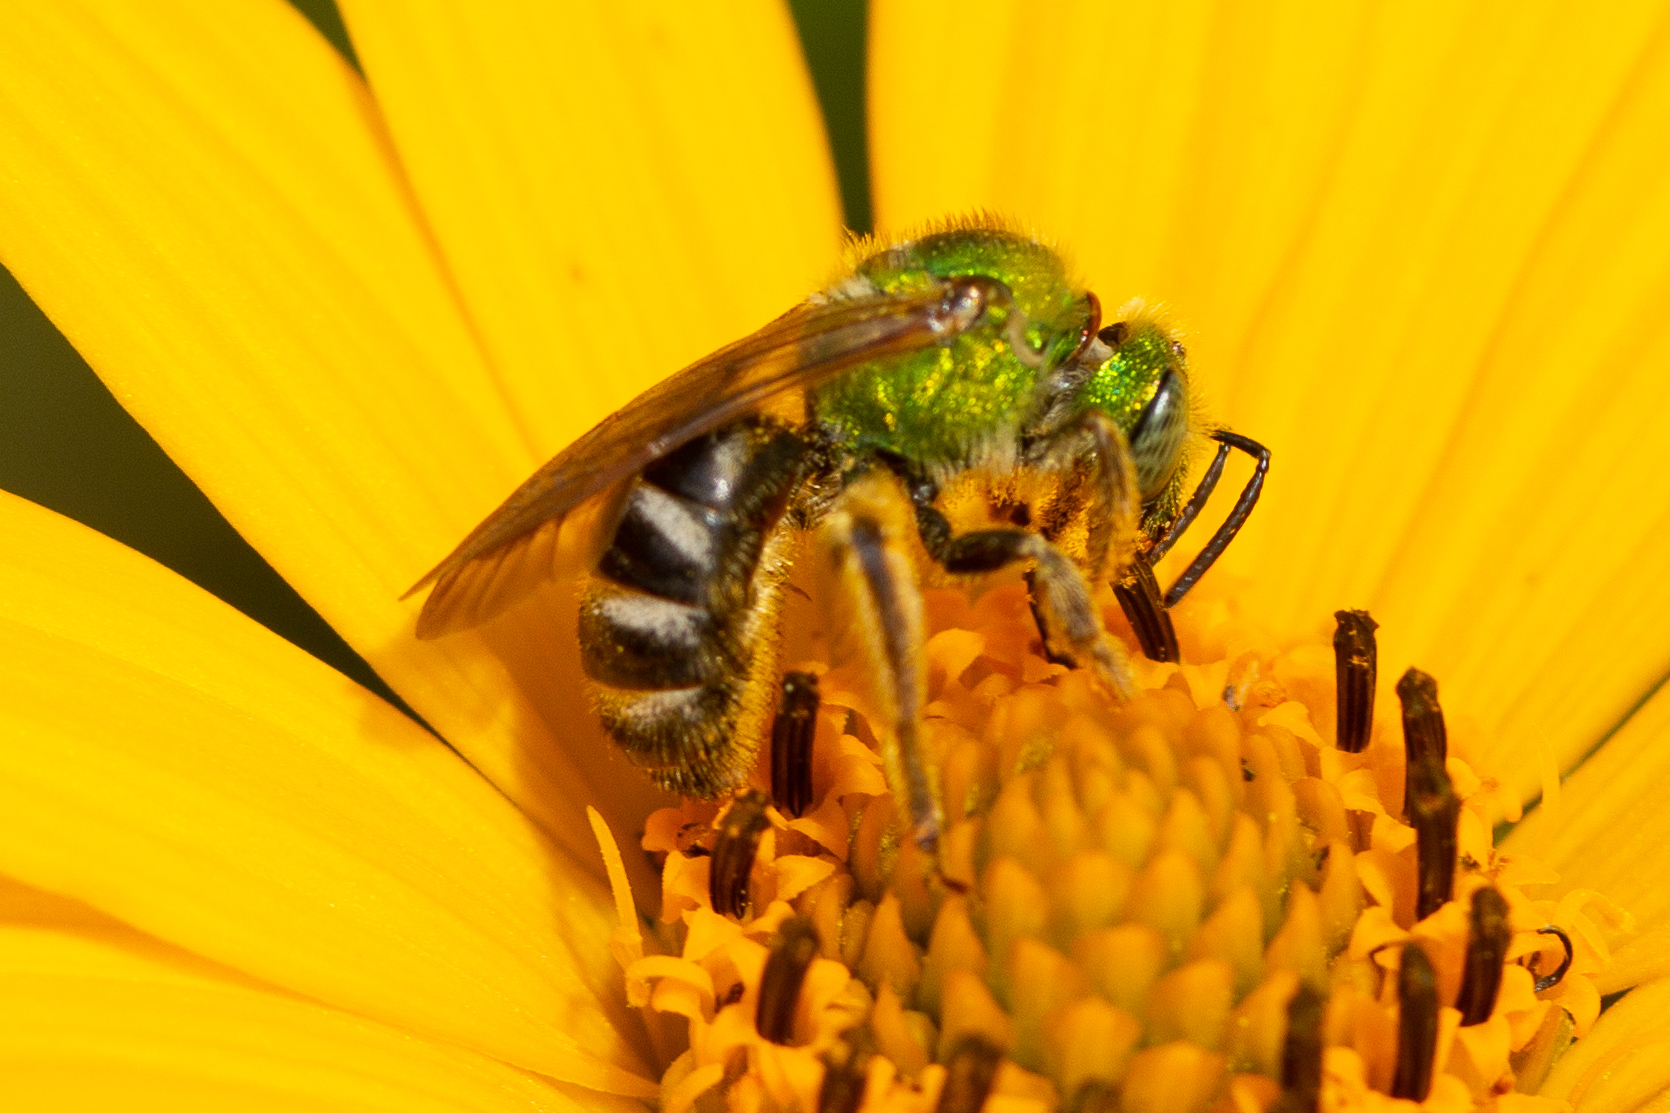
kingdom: Animalia
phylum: Arthropoda
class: Insecta
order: Hymenoptera
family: Halictidae
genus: Agapostemon
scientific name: Agapostemon virescens
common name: Bicolored striped sweat bee
